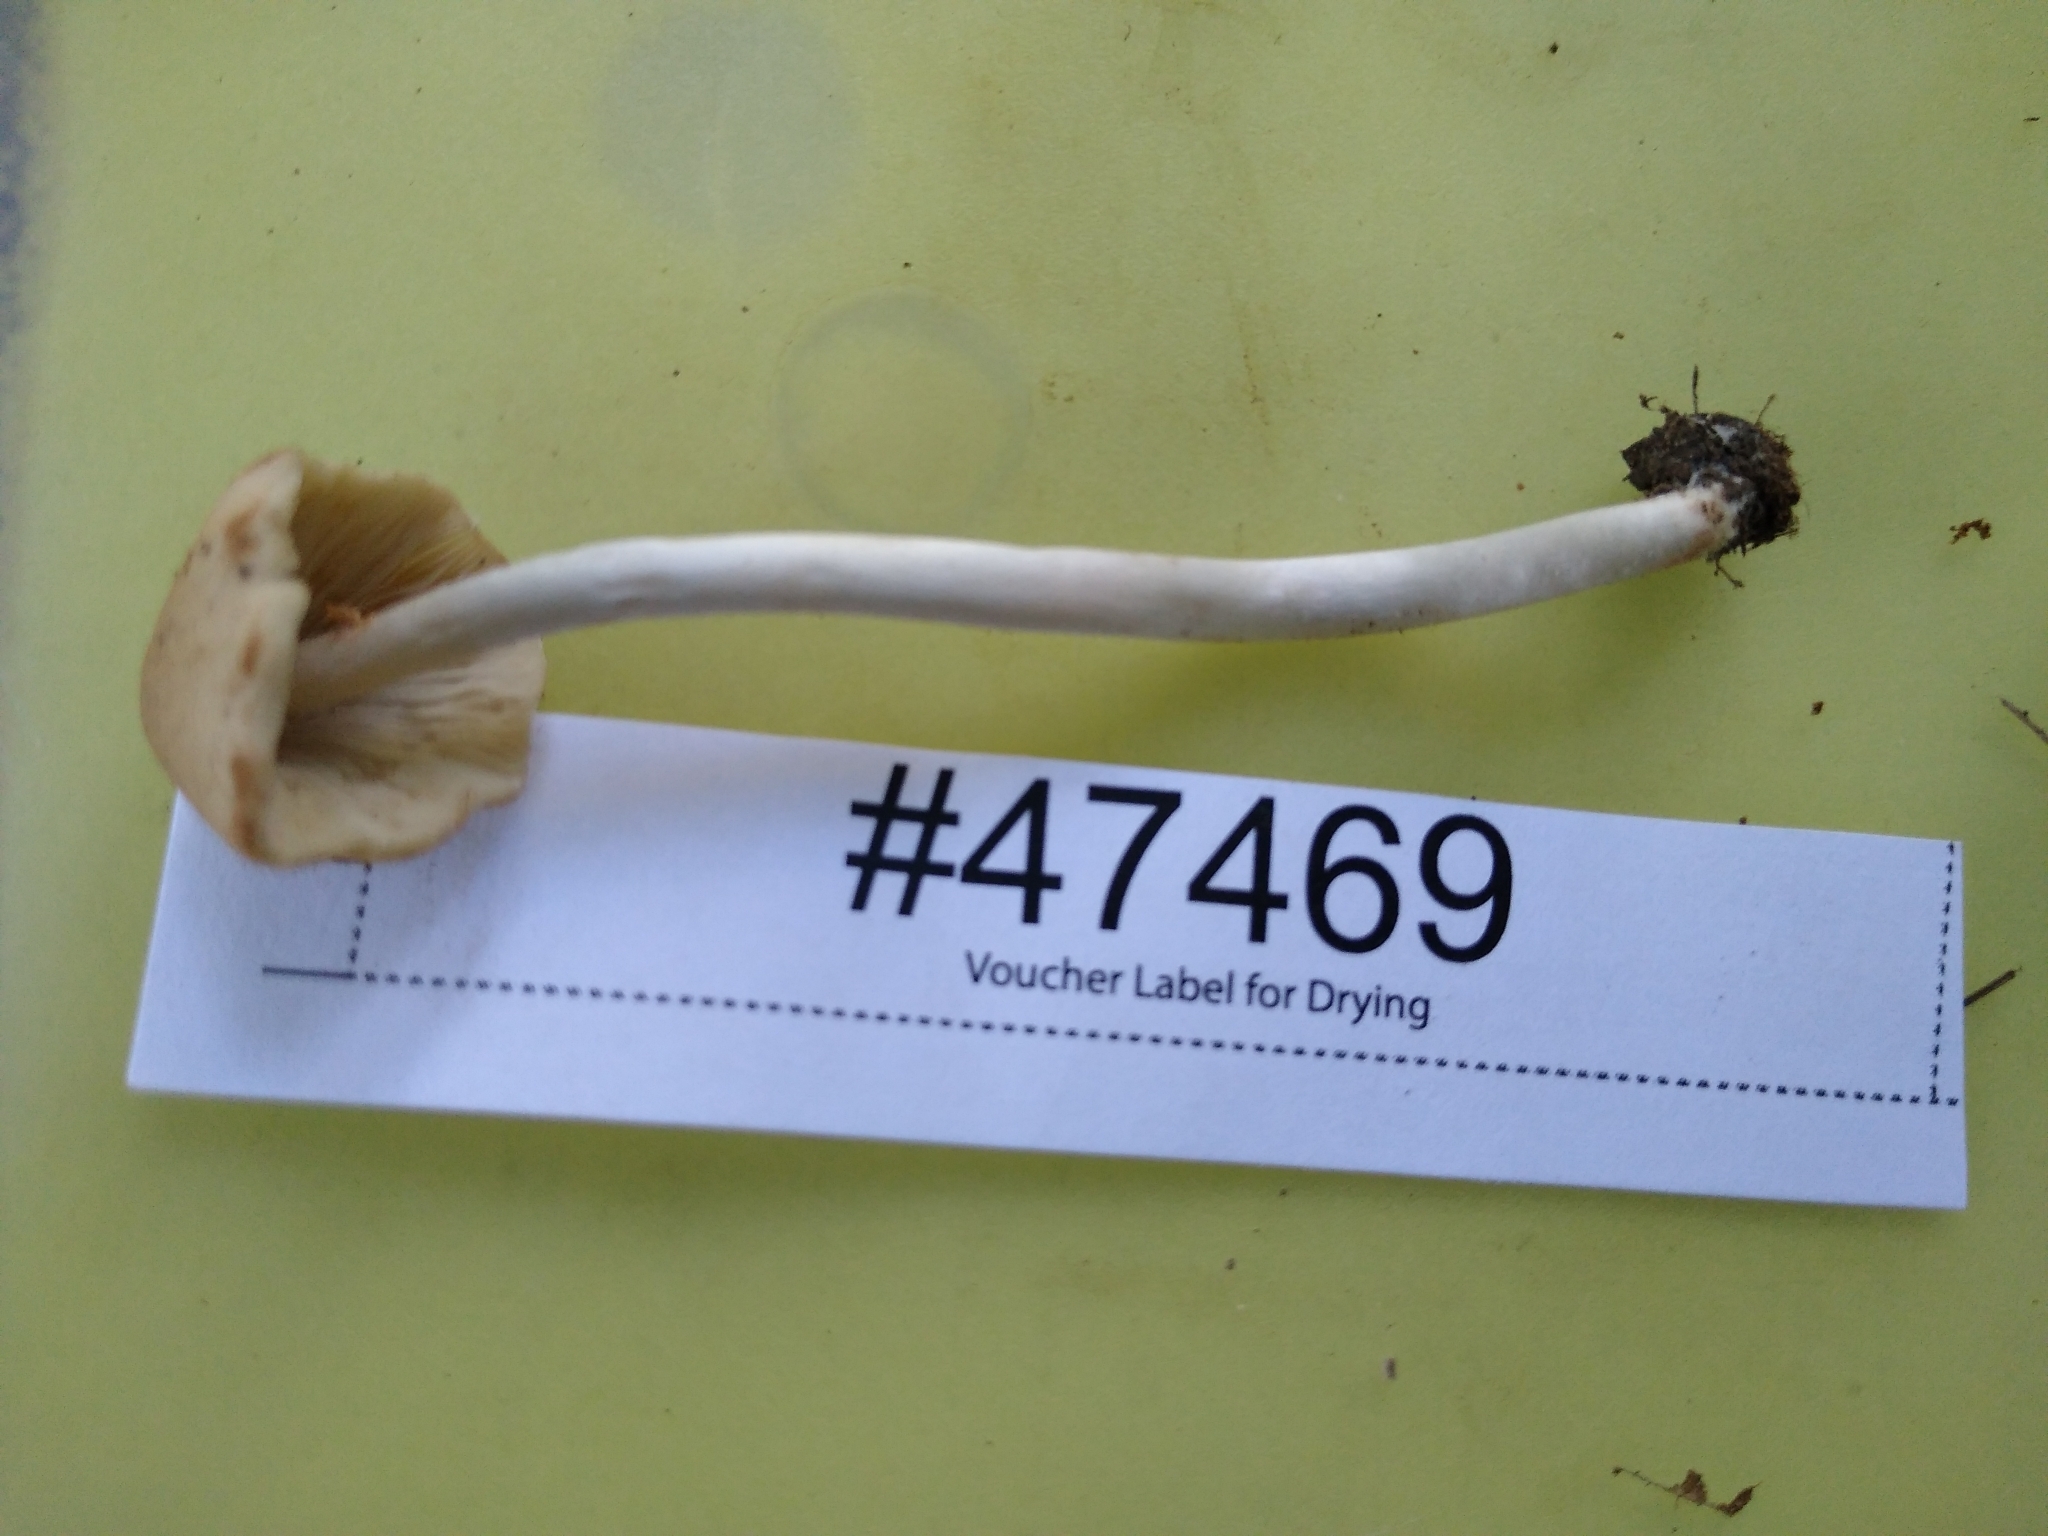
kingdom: Fungi
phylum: Basidiomycota
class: Agaricomycetes
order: Agaricales
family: Psathyrellaceae
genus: Candolleomyces
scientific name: Candolleomyces candolleanus
